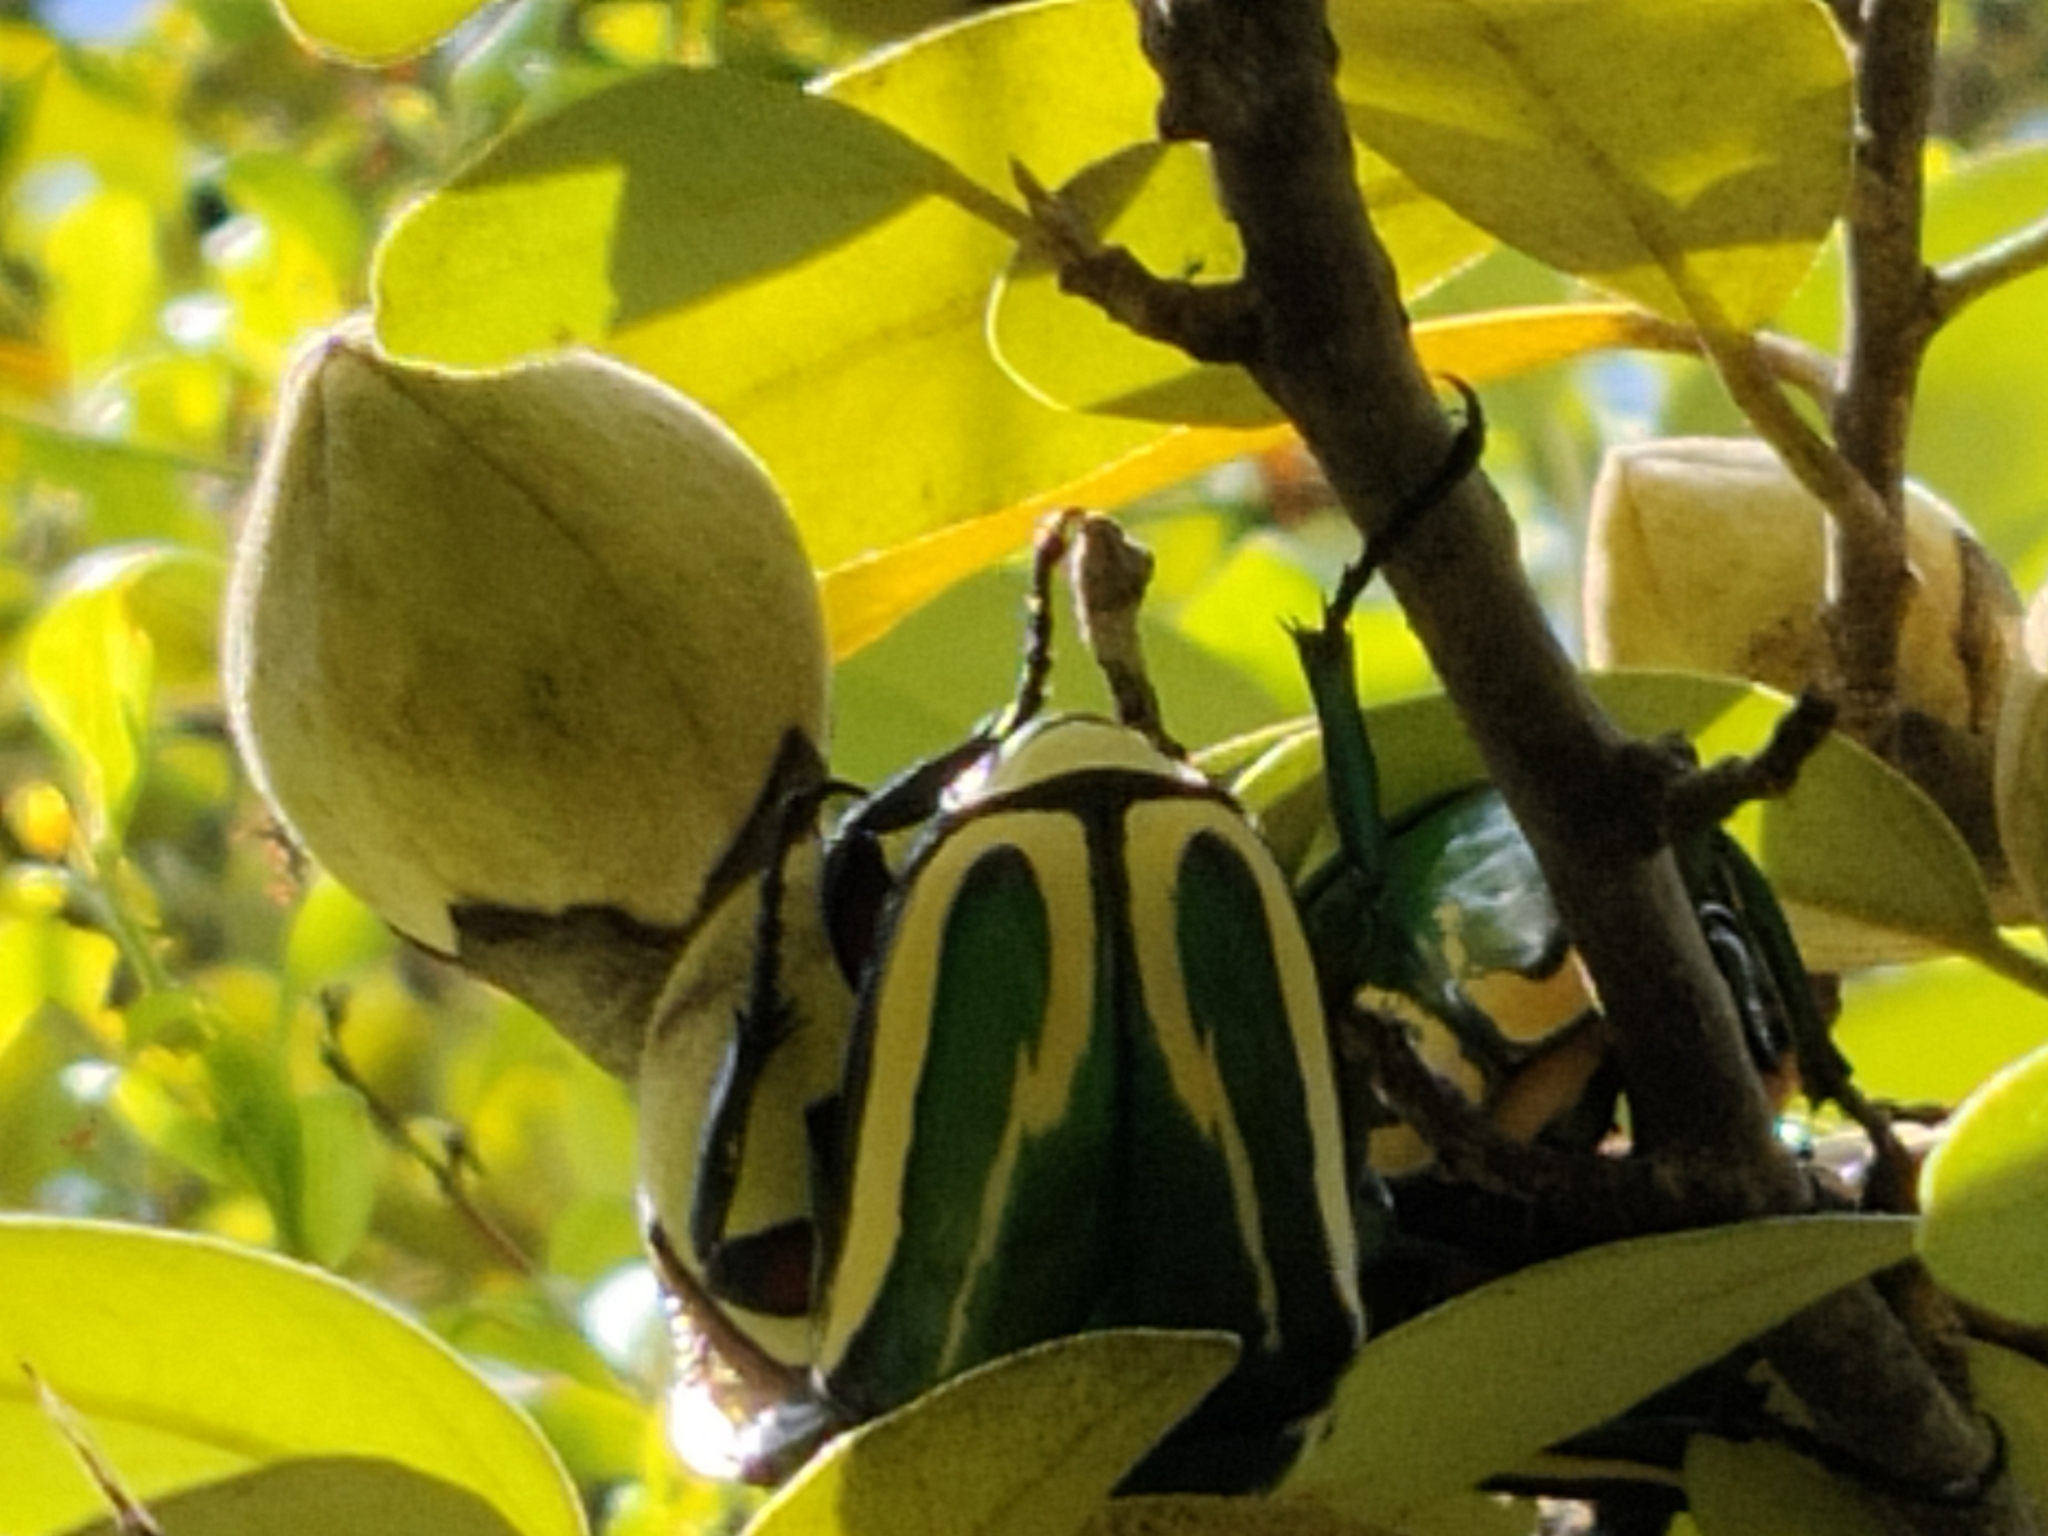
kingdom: Animalia
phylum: Arthropoda
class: Insecta
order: Coleoptera
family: Scarabaeidae
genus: Dicronorhina
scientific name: Dicronorhina derbyana
